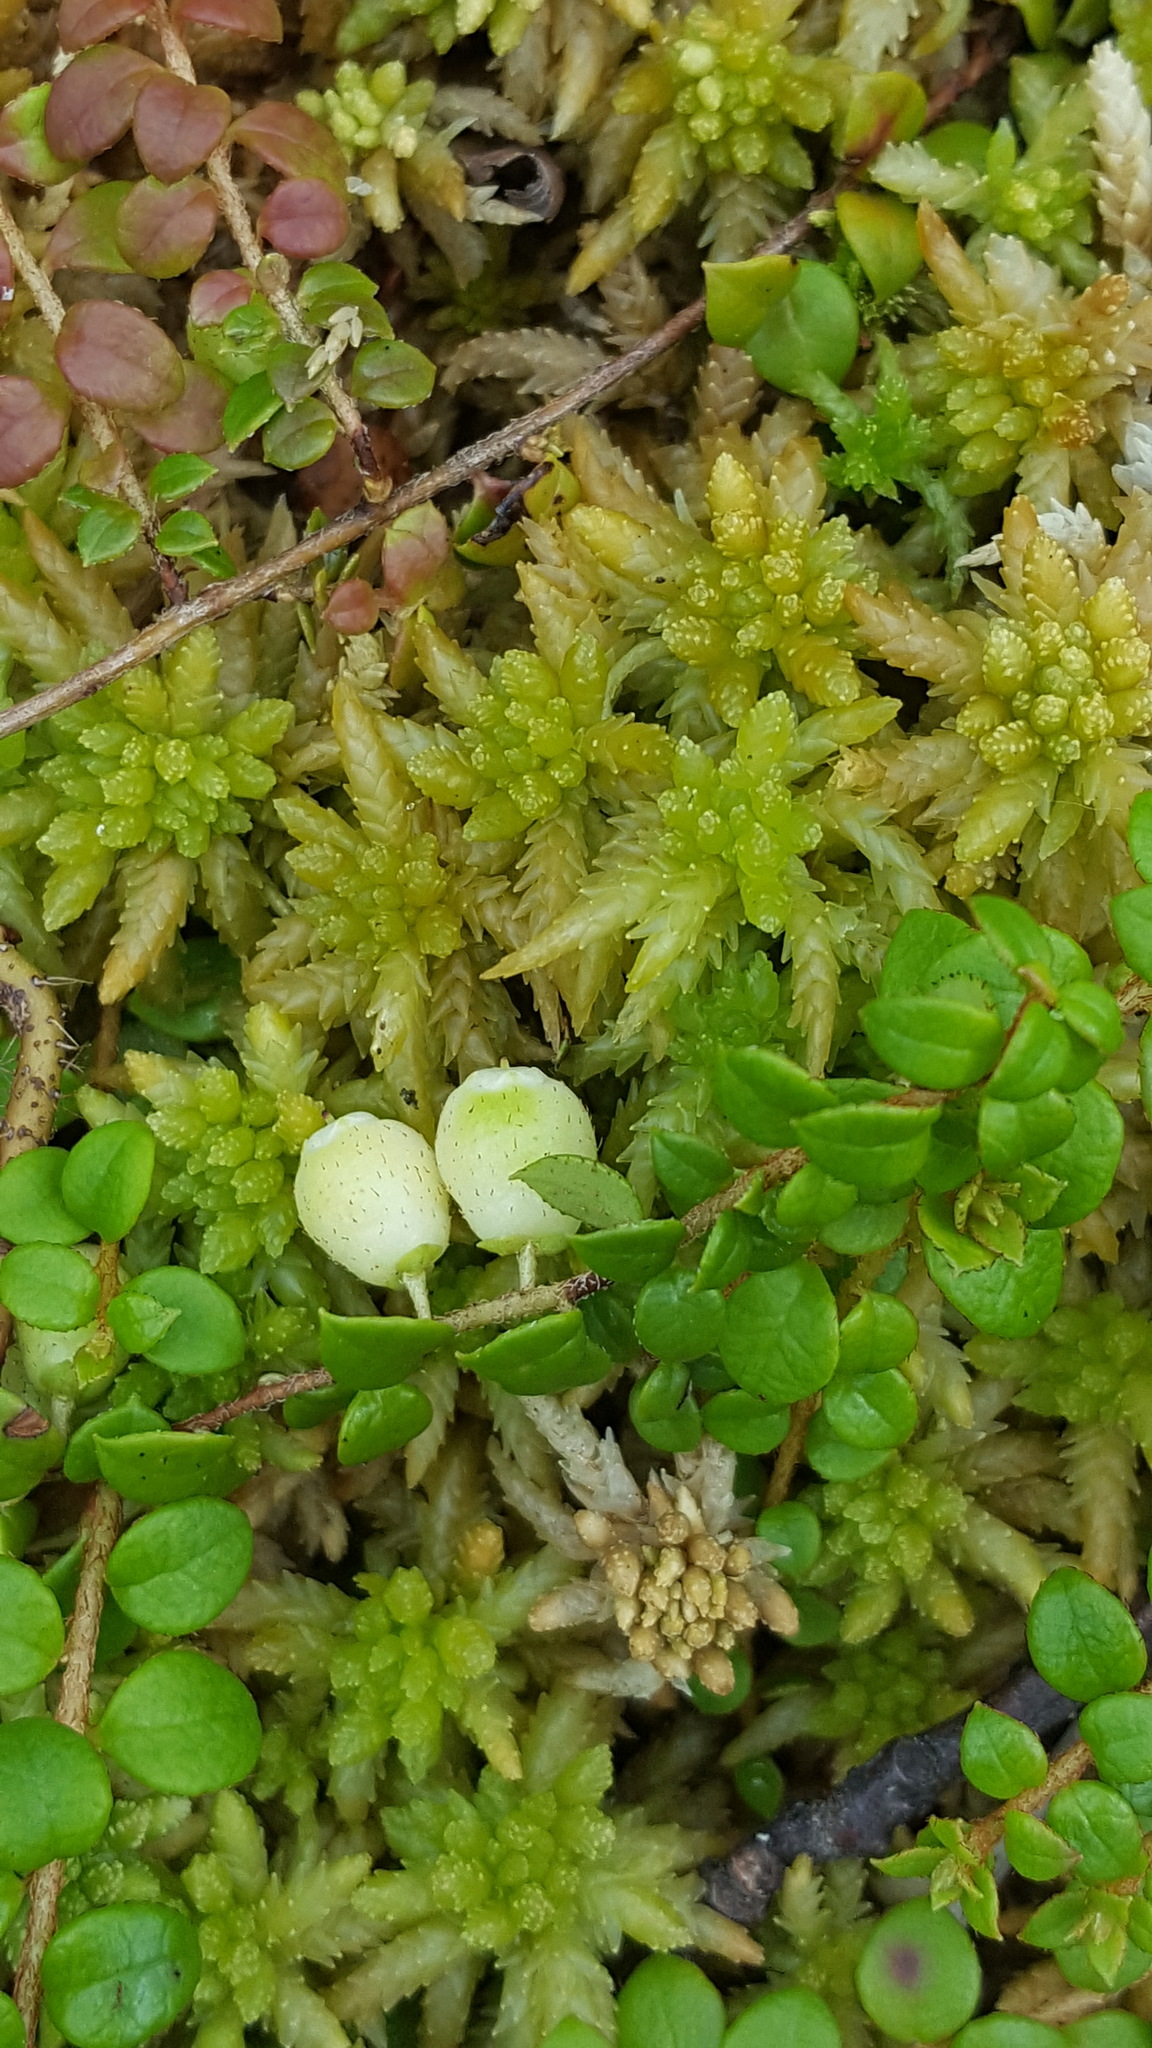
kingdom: Plantae
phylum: Tracheophyta
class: Magnoliopsida
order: Ericales
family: Ericaceae
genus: Gaultheria
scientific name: Gaultheria hispidula
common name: Cancer wintergreen
